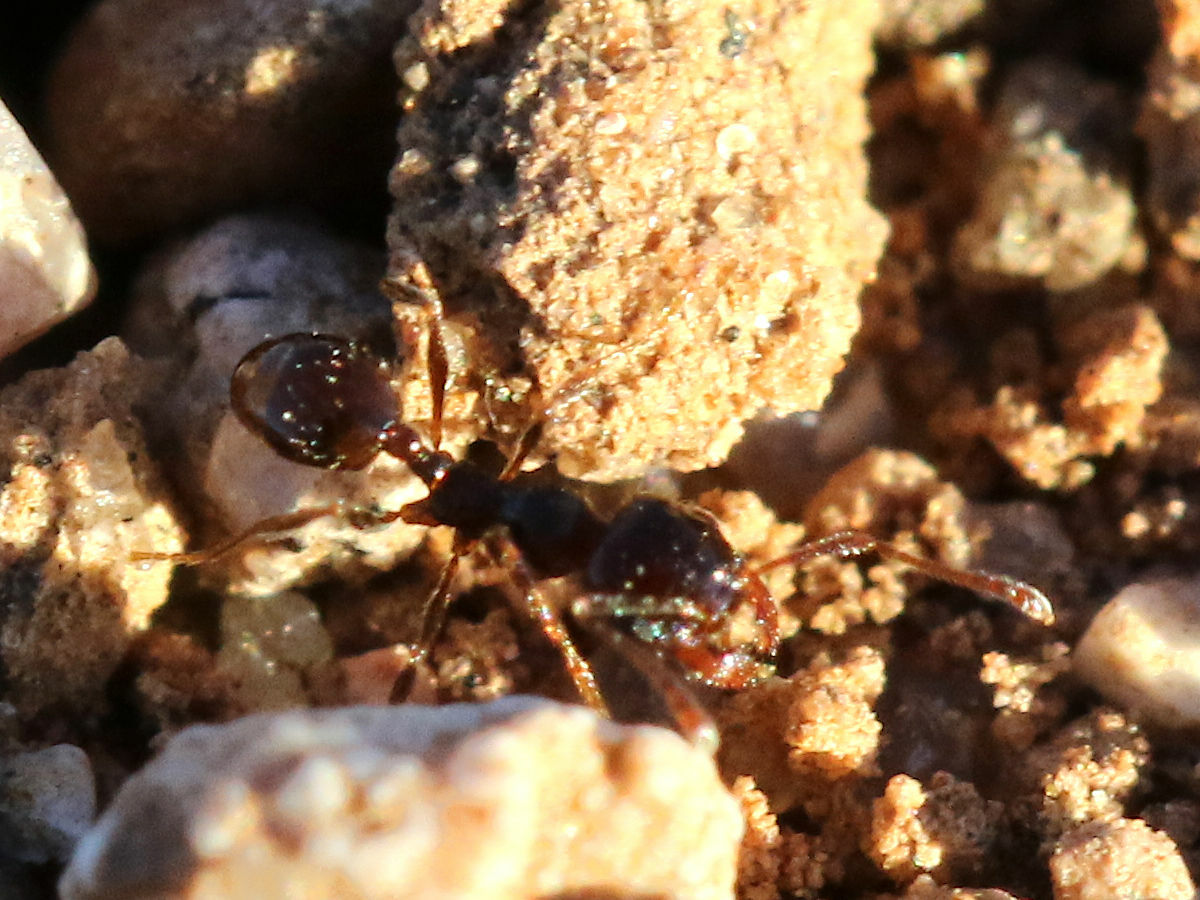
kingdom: Animalia
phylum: Arthropoda
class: Insecta
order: Hymenoptera
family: Formicidae
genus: Pheidole
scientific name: Pheidole xerophila
